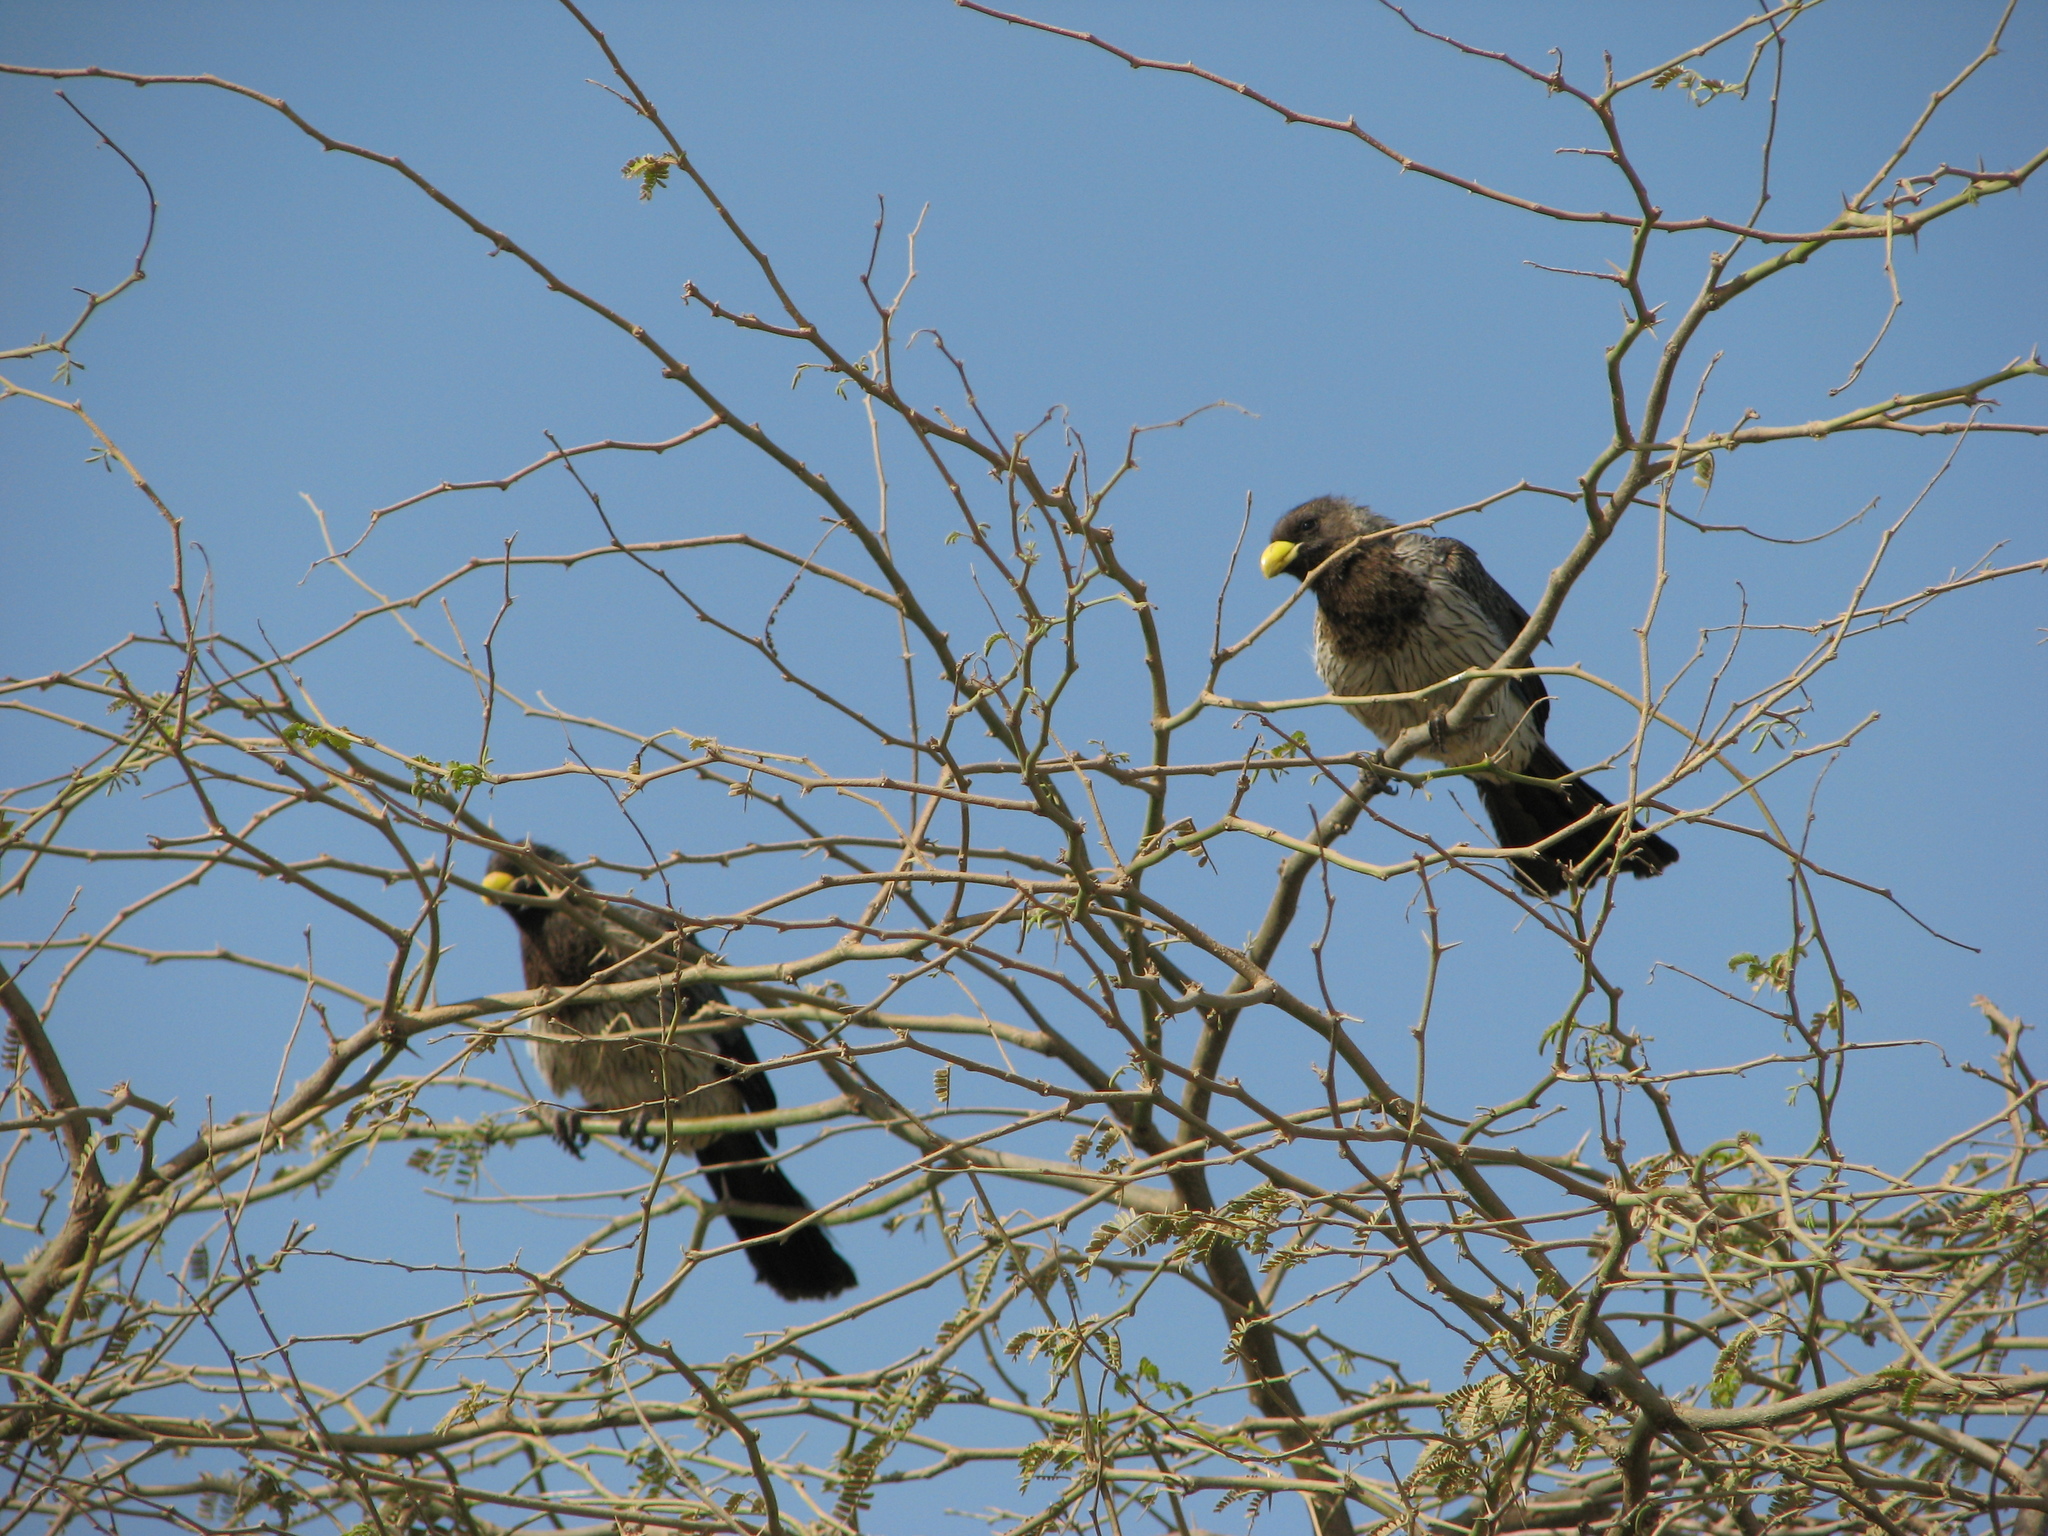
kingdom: Animalia
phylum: Chordata
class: Aves
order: Musophagiformes
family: Musophagidae
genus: Crinifer
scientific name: Crinifer piscator
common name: Western plantain-eater
